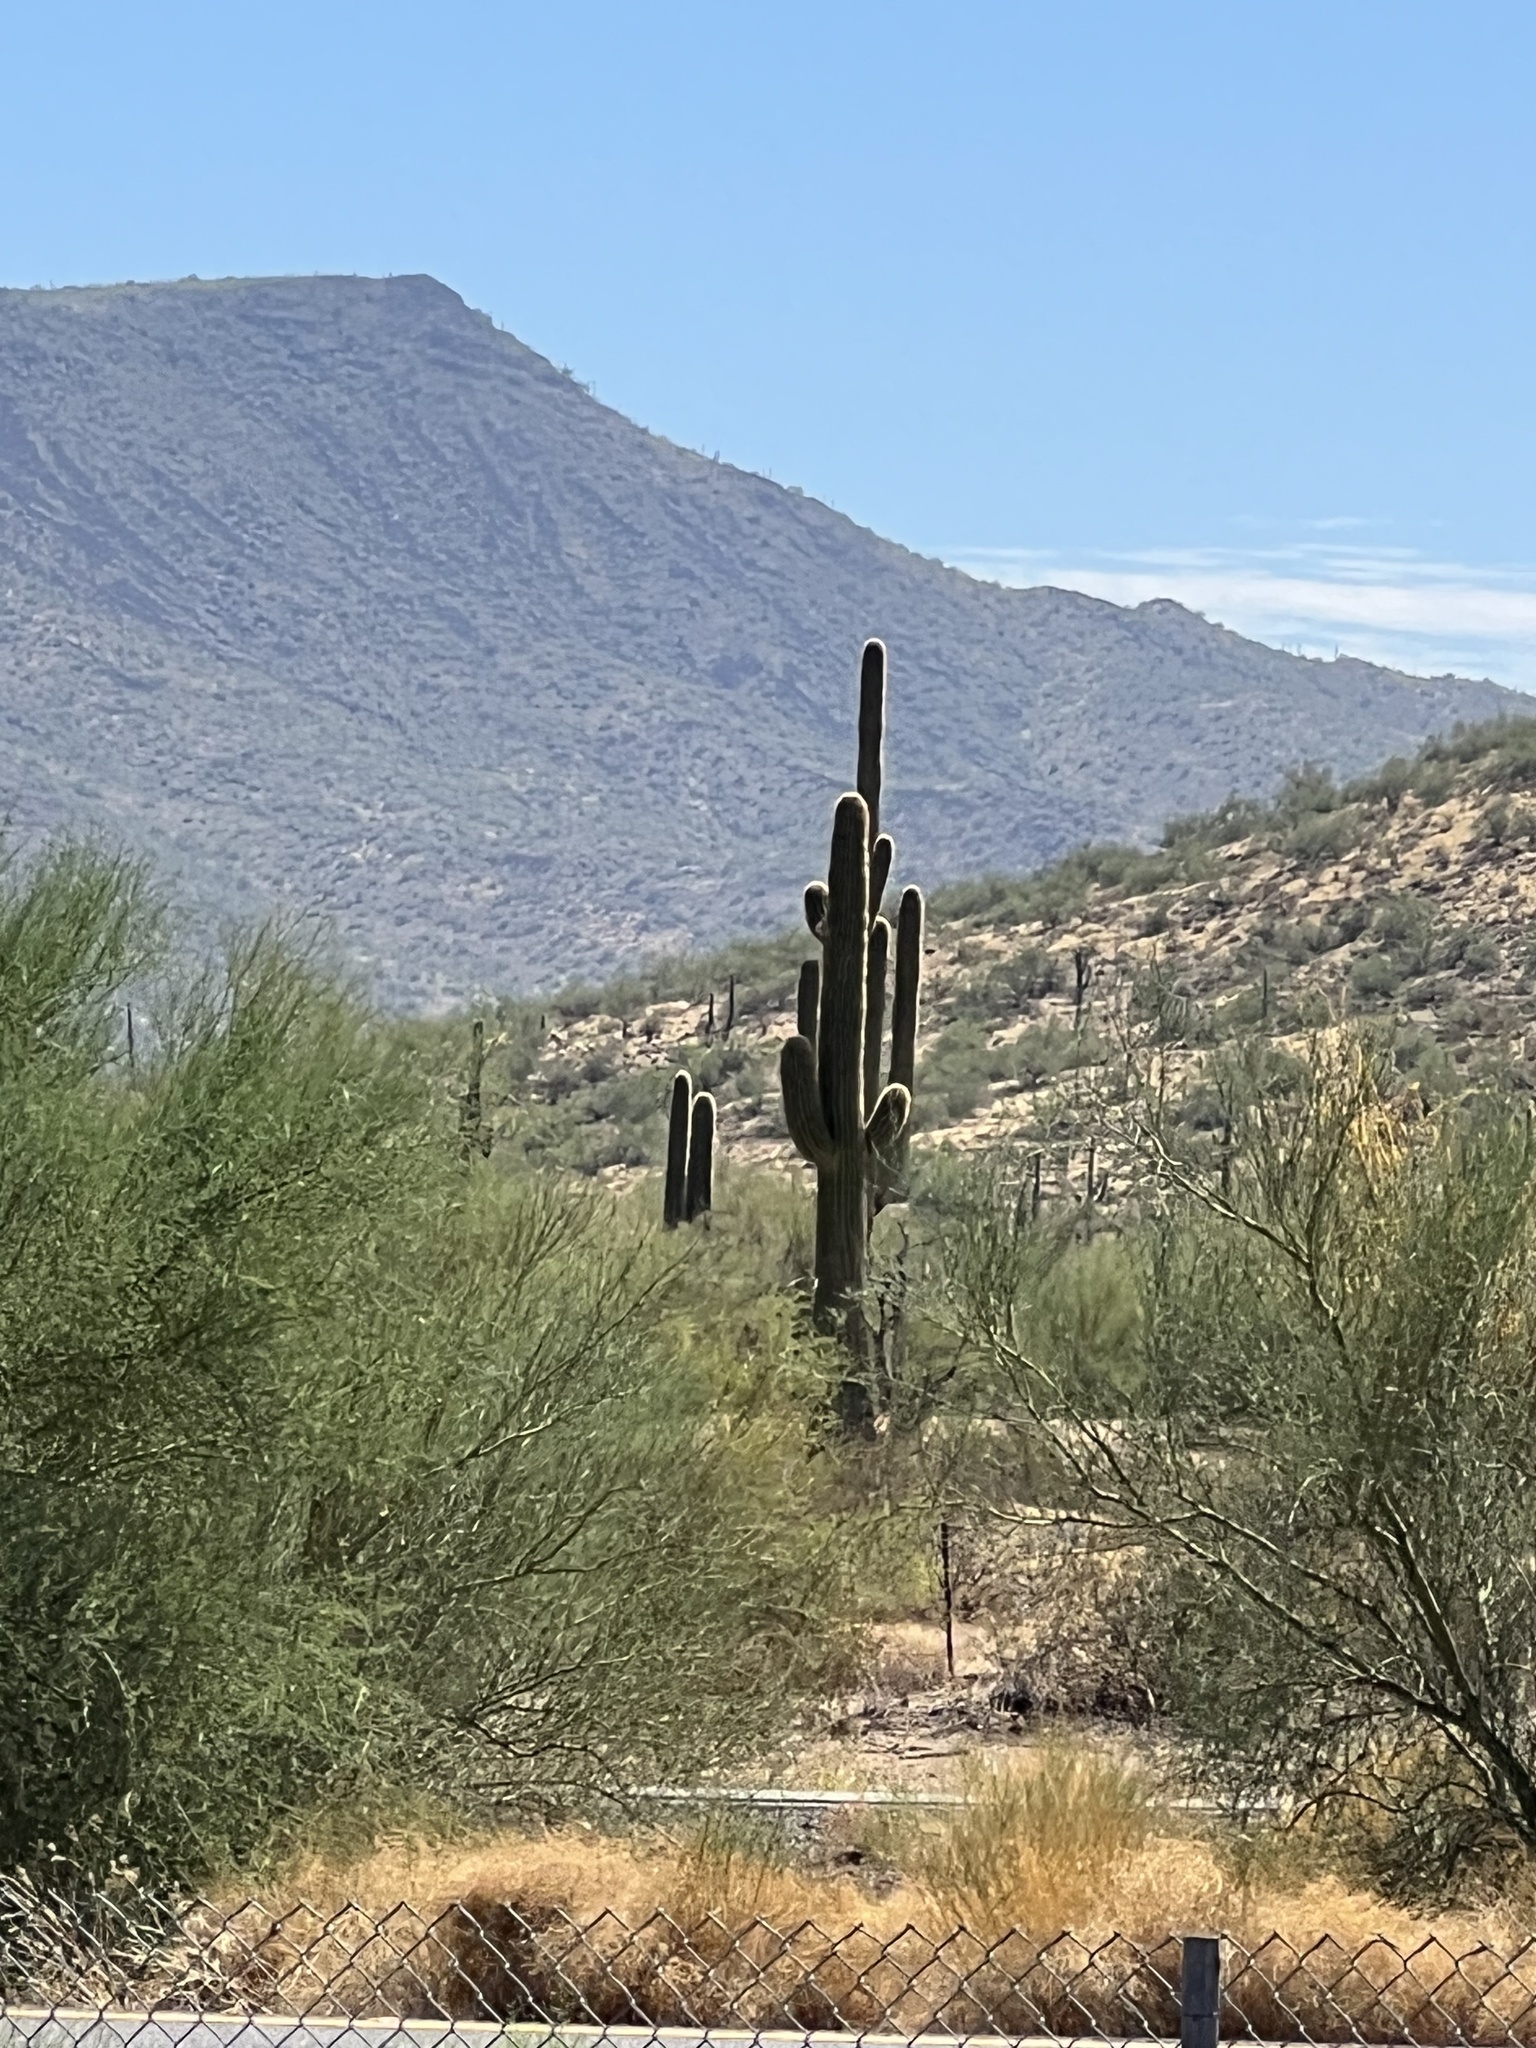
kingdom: Plantae
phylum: Tracheophyta
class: Magnoliopsida
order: Caryophyllales
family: Cactaceae
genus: Carnegiea
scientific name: Carnegiea gigantea
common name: Saguaro
